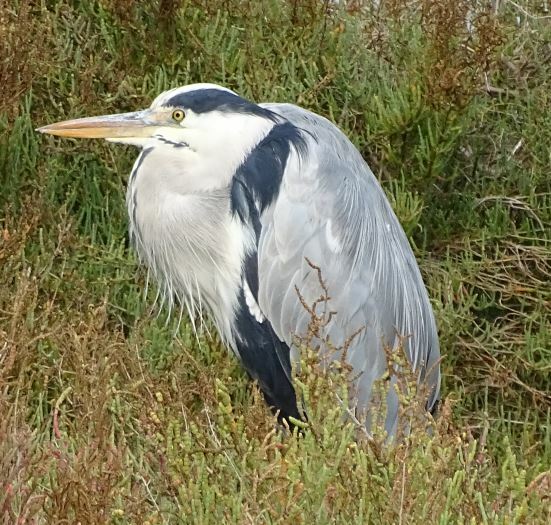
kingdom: Animalia
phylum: Chordata
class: Aves
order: Pelecaniformes
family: Ardeidae
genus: Ardea
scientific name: Ardea cinerea
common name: Grey heron
